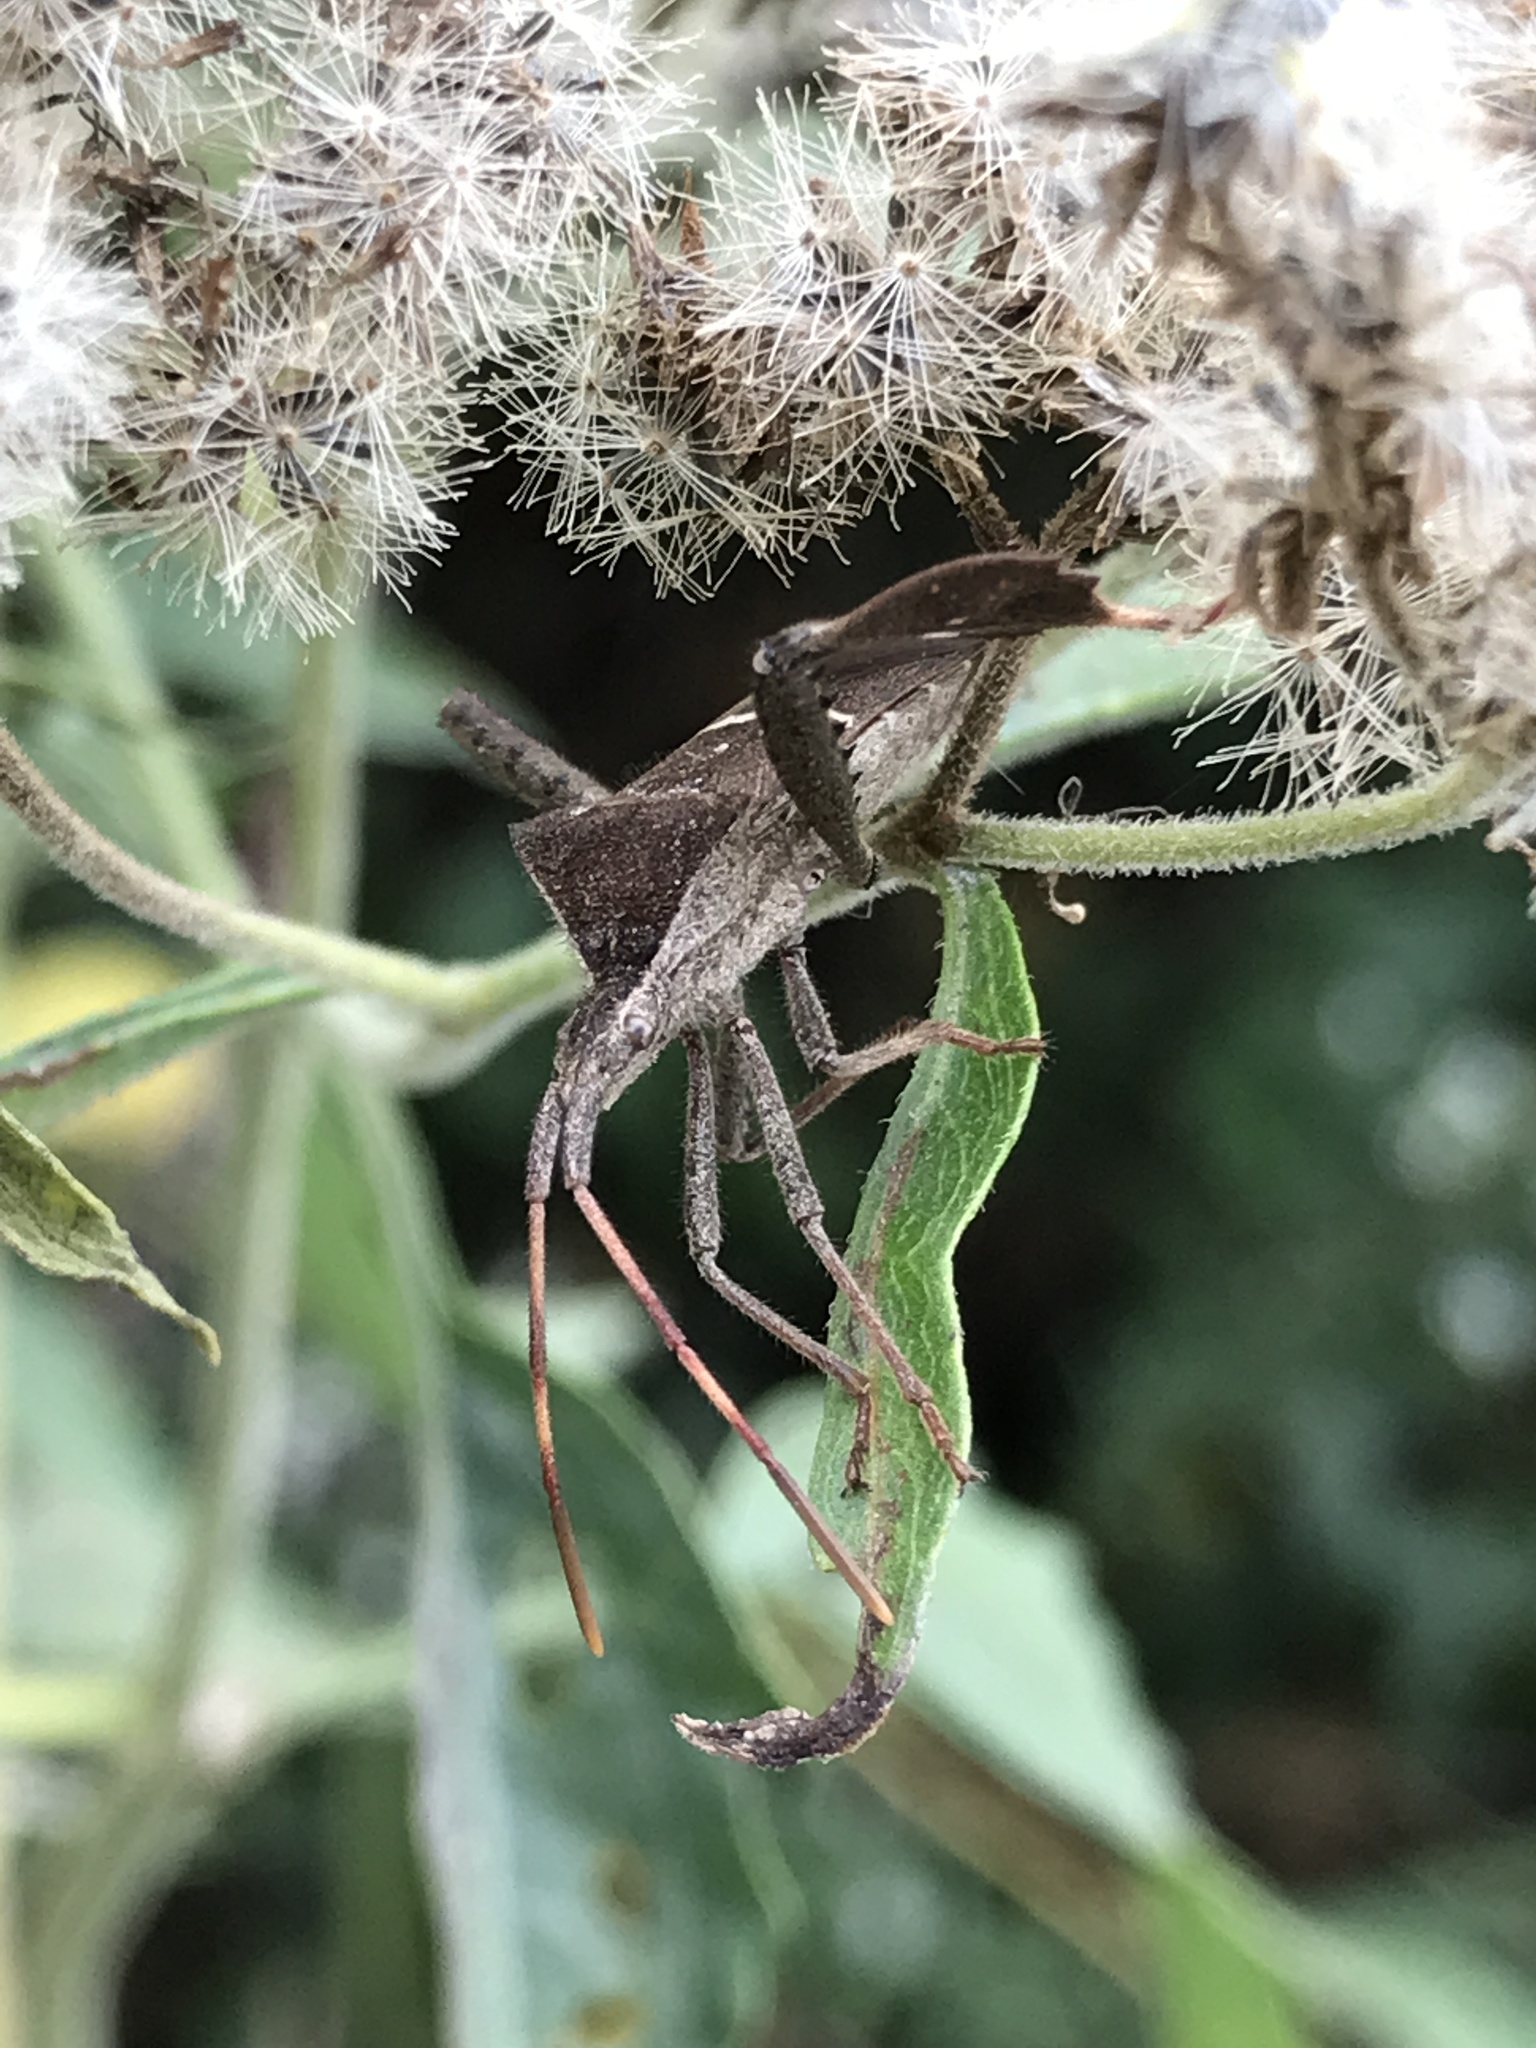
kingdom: Animalia
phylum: Arthropoda
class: Insecta
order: Hemiptera
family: Coreidae
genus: Leptoglossus
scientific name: Leptoglossus phyllopus
